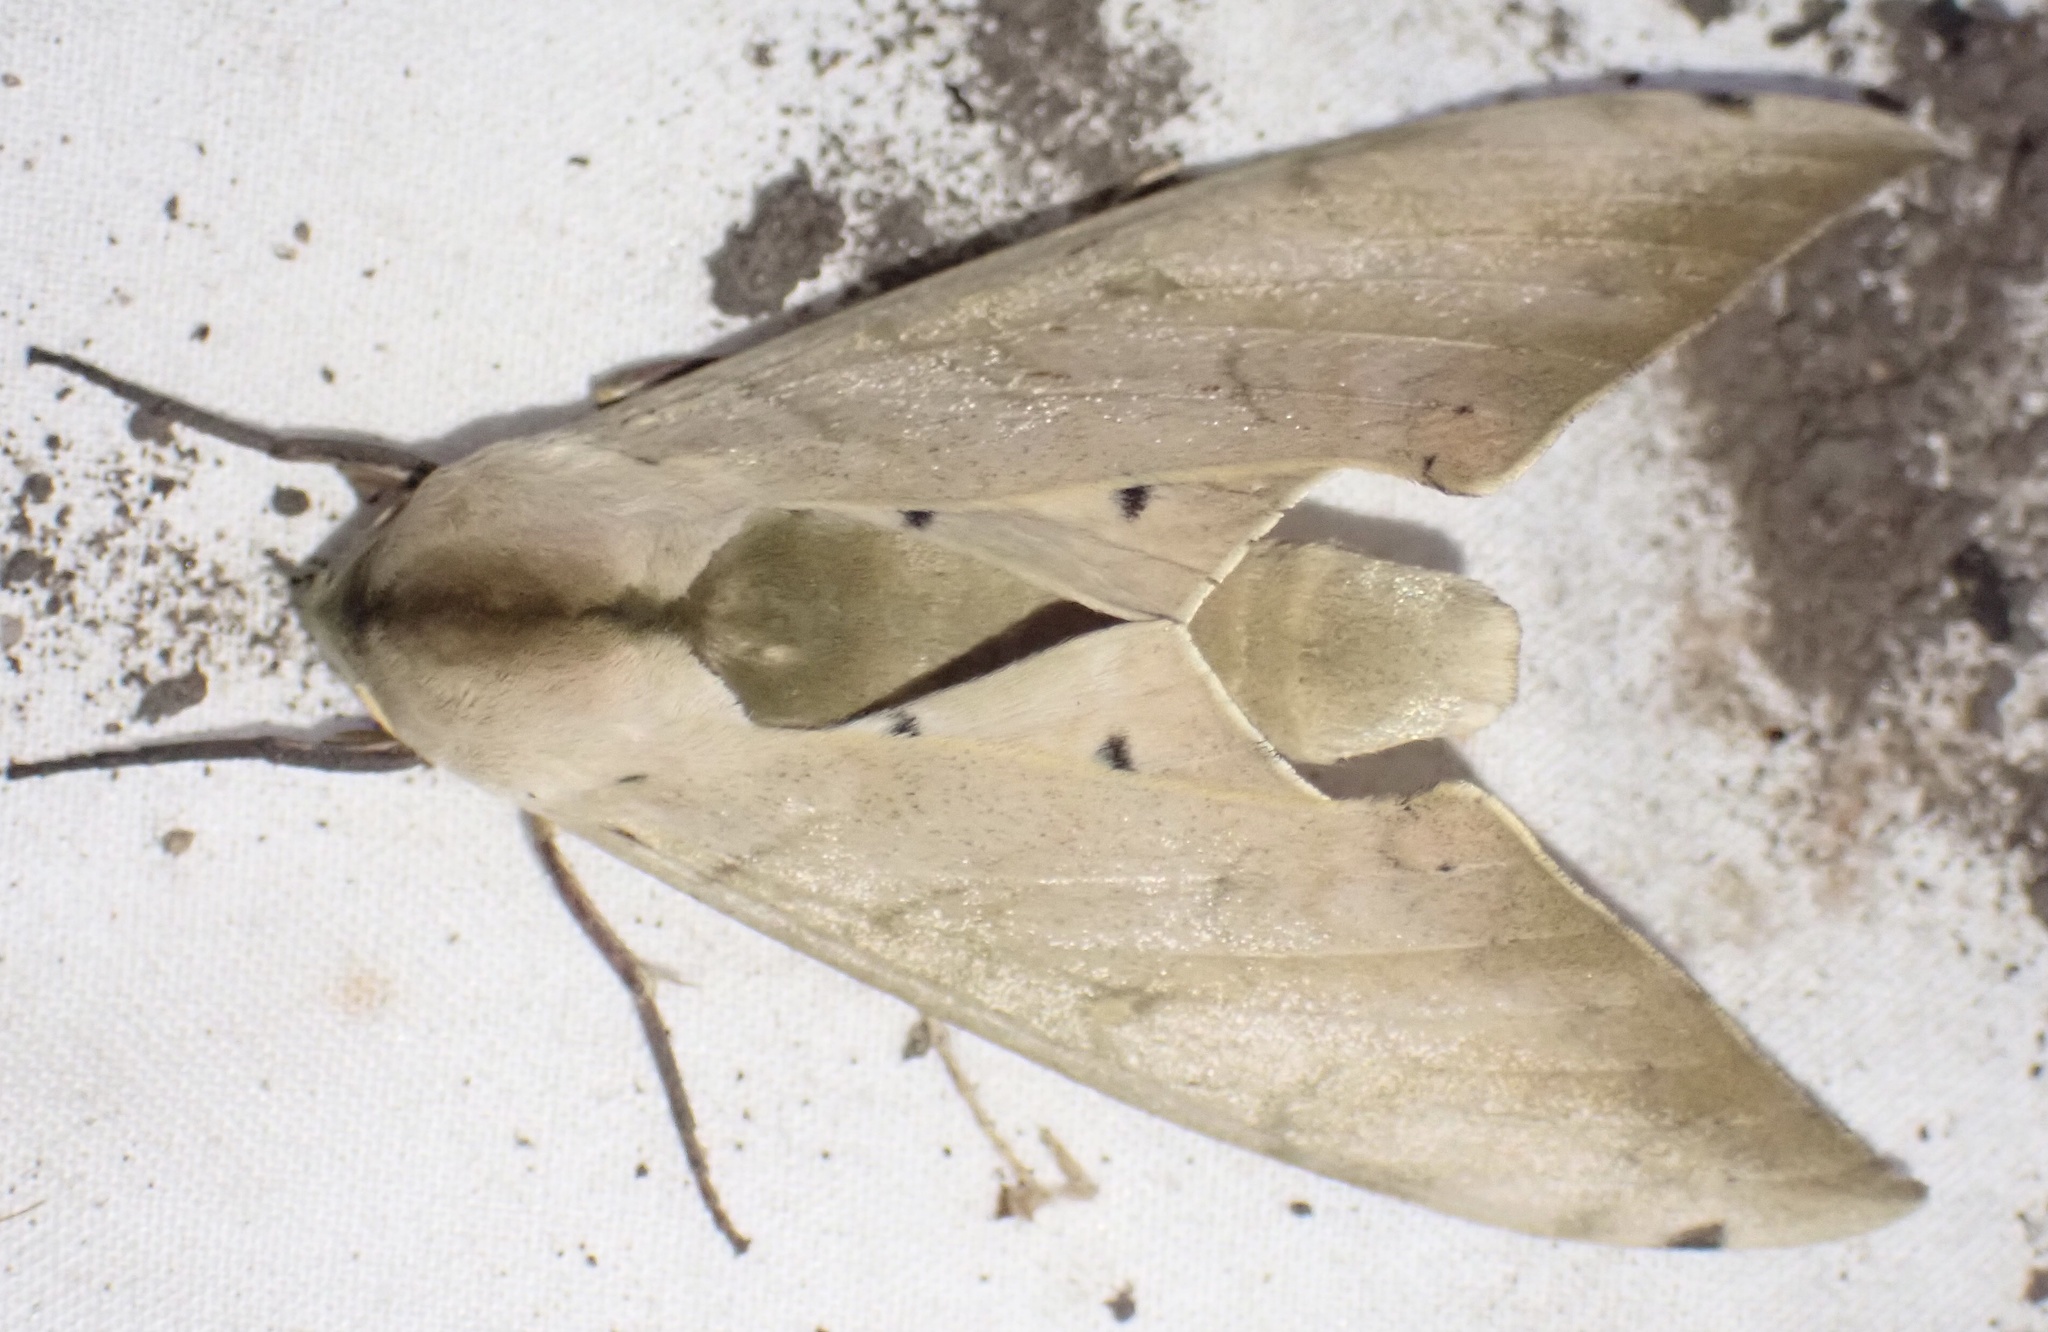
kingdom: Animalia
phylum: Arthropoda
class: Insecta
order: Lepidoptera
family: Sphingidae
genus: Pseudoclanis
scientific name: Pseudoclanis occidentalis
